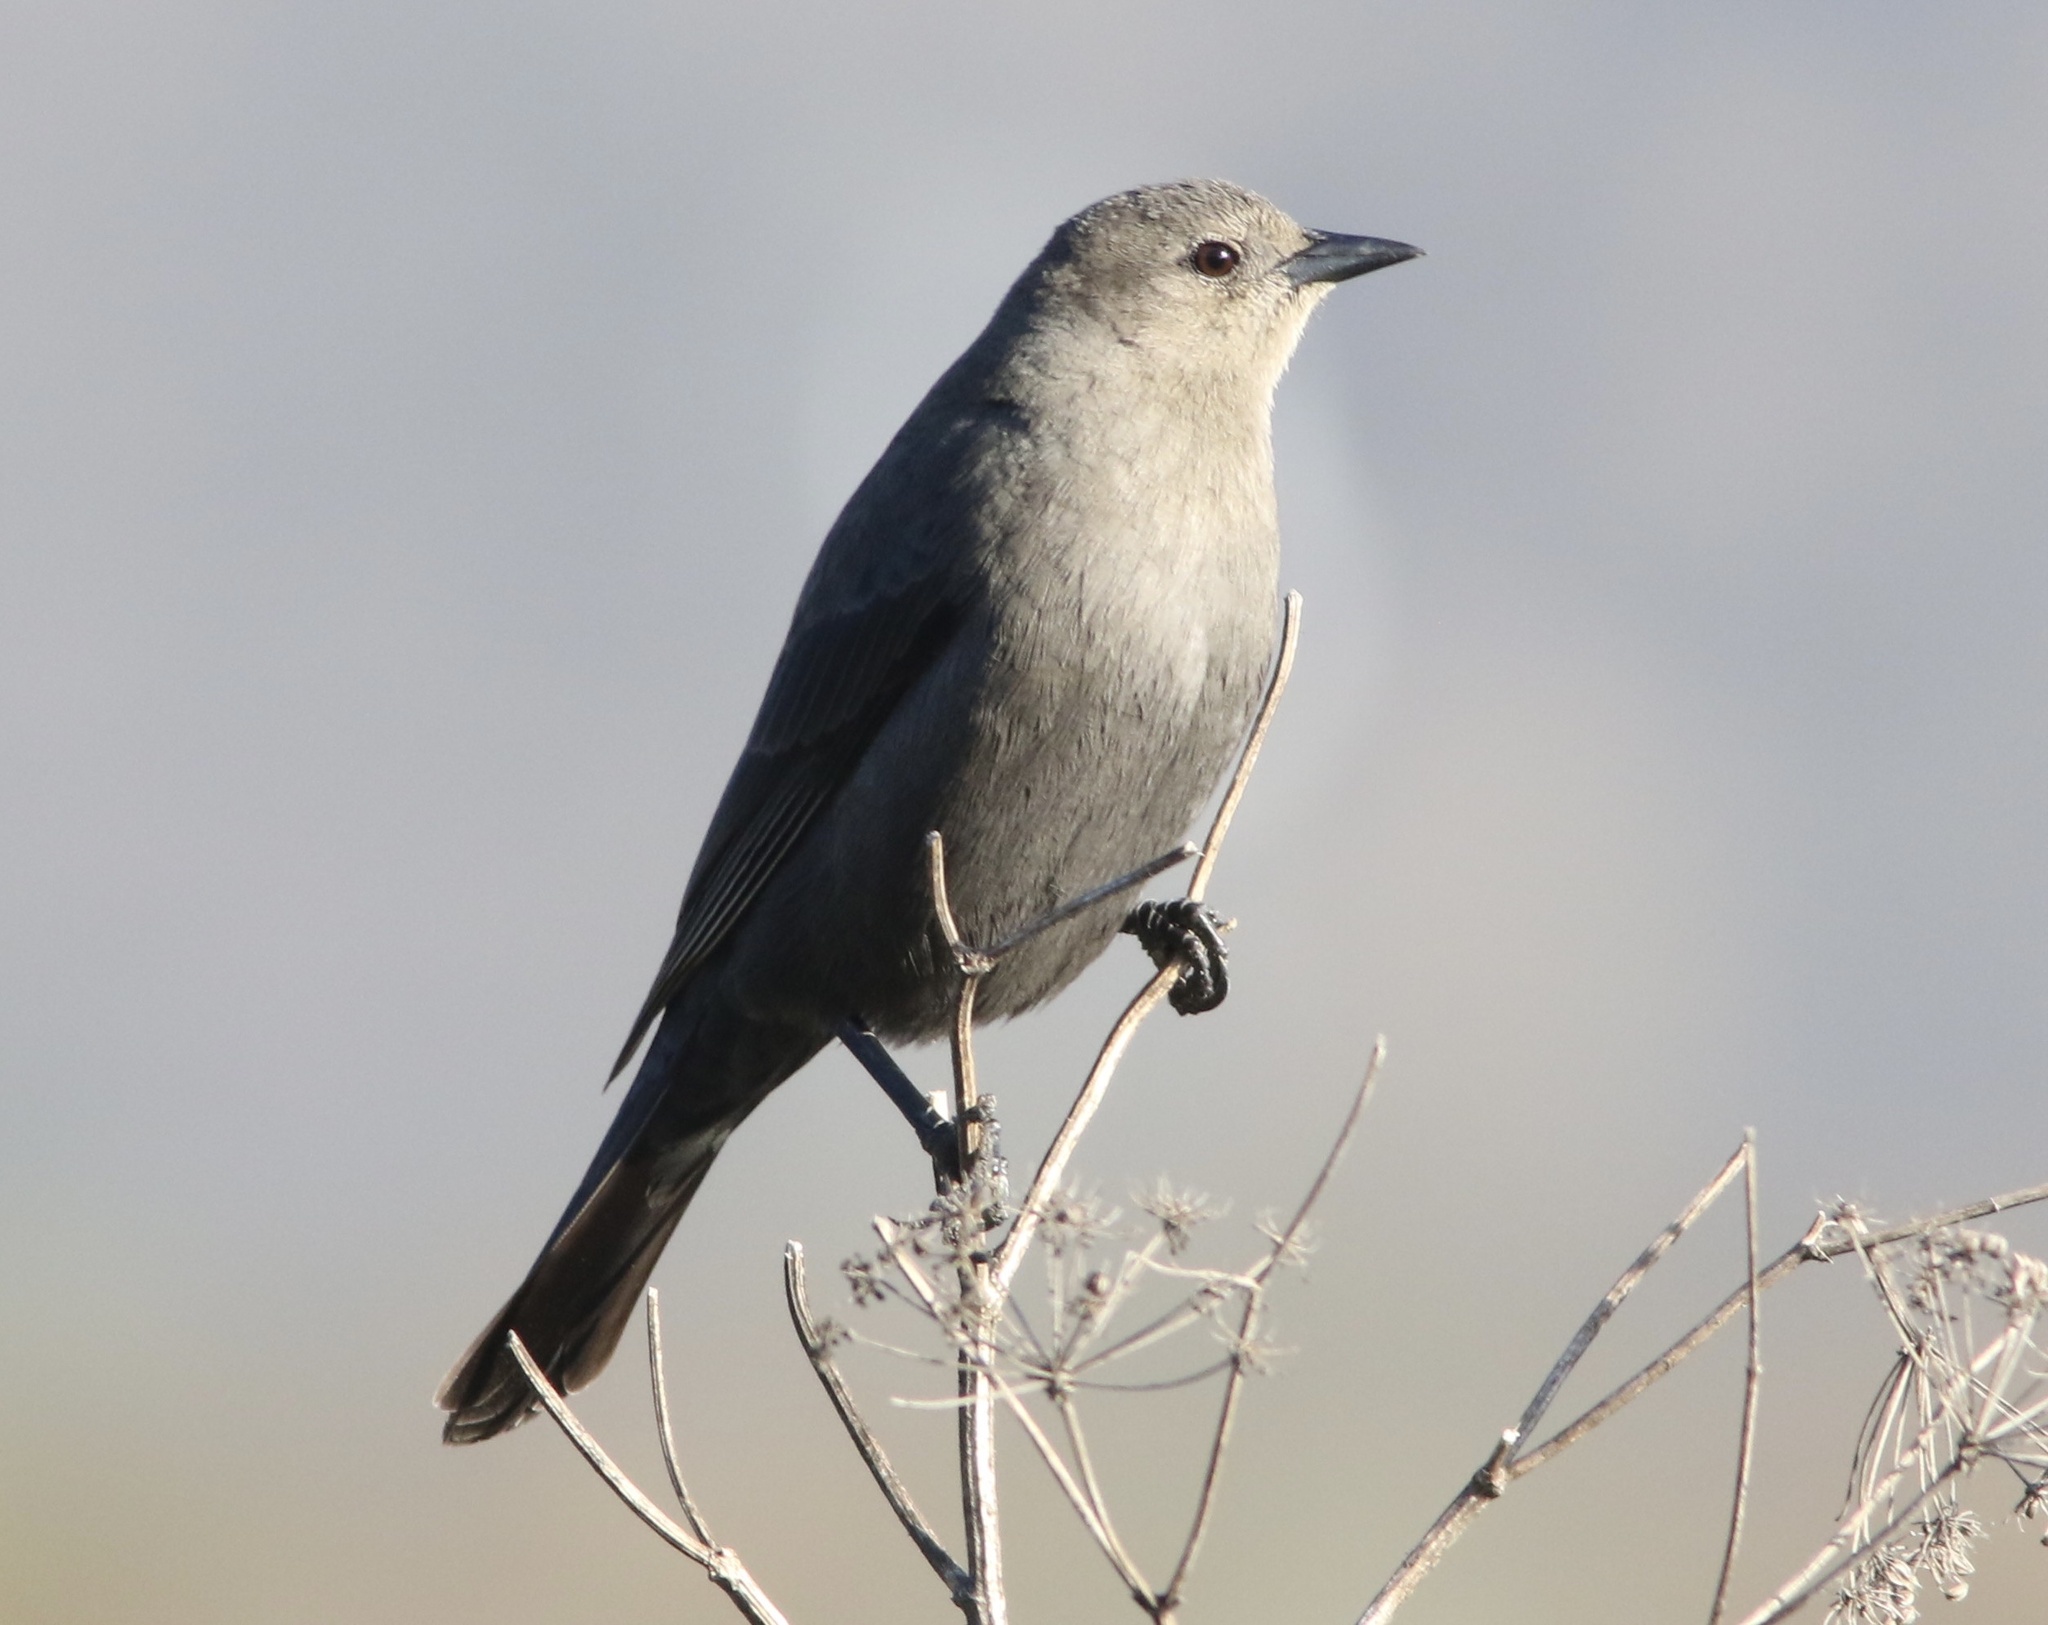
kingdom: Animalia
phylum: Chordata
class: Aves
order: Passeriformes
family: Icteridae
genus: Euphagus
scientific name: Euphagus cyanocephalus
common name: Brewer's blackbird
